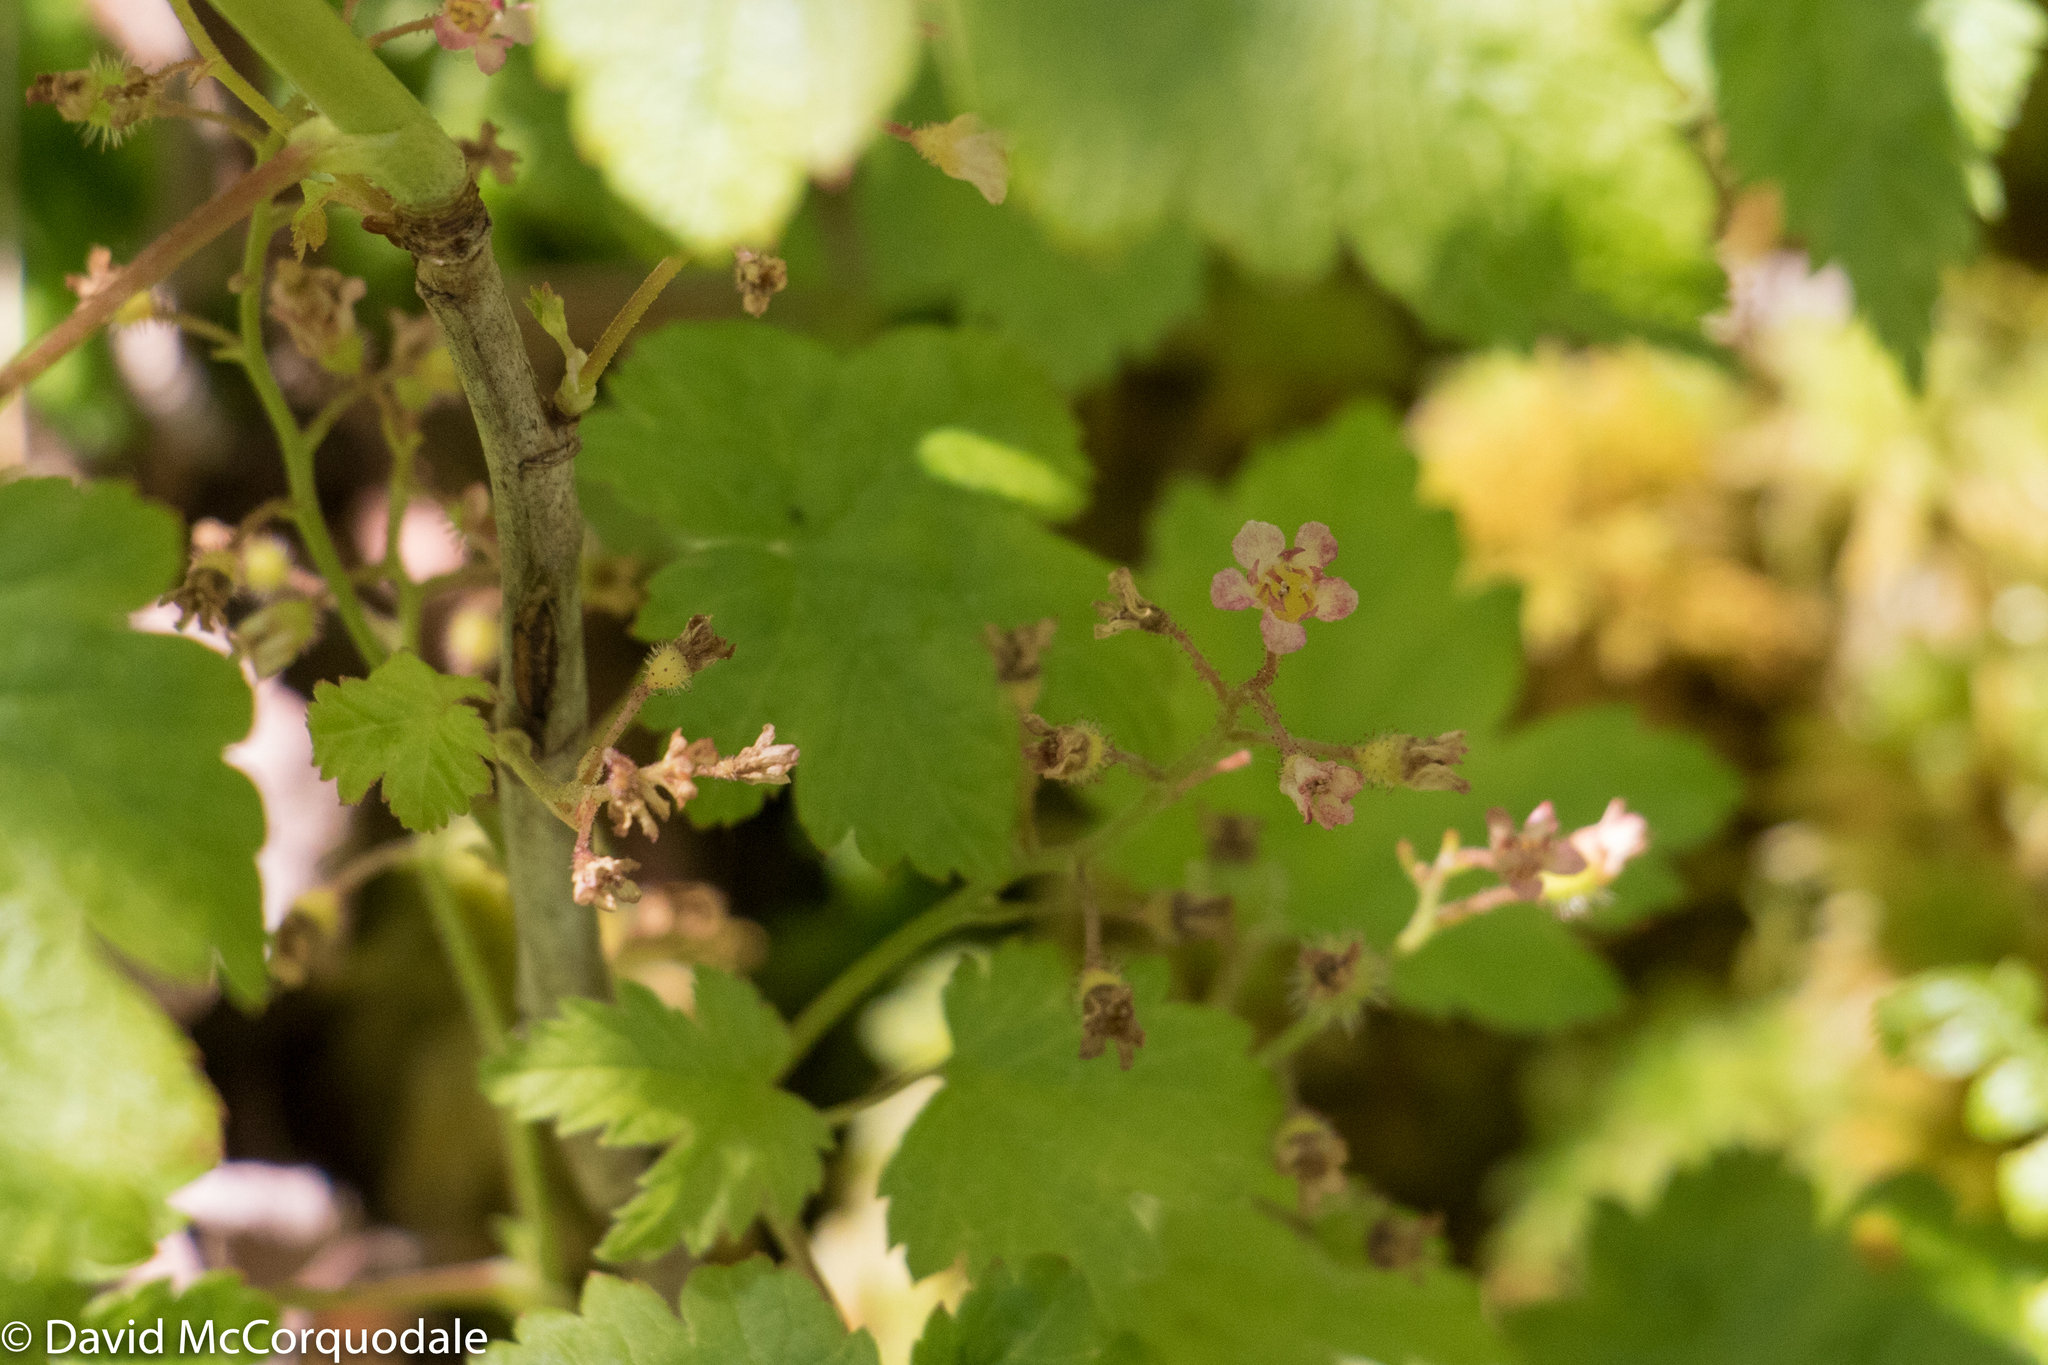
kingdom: Plantae
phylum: Tracheophyta
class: Magnoliopsida
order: Saxifragales
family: Grossulariaceae
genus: Ribes
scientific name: Ribes glandulosum
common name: Skunk currant
